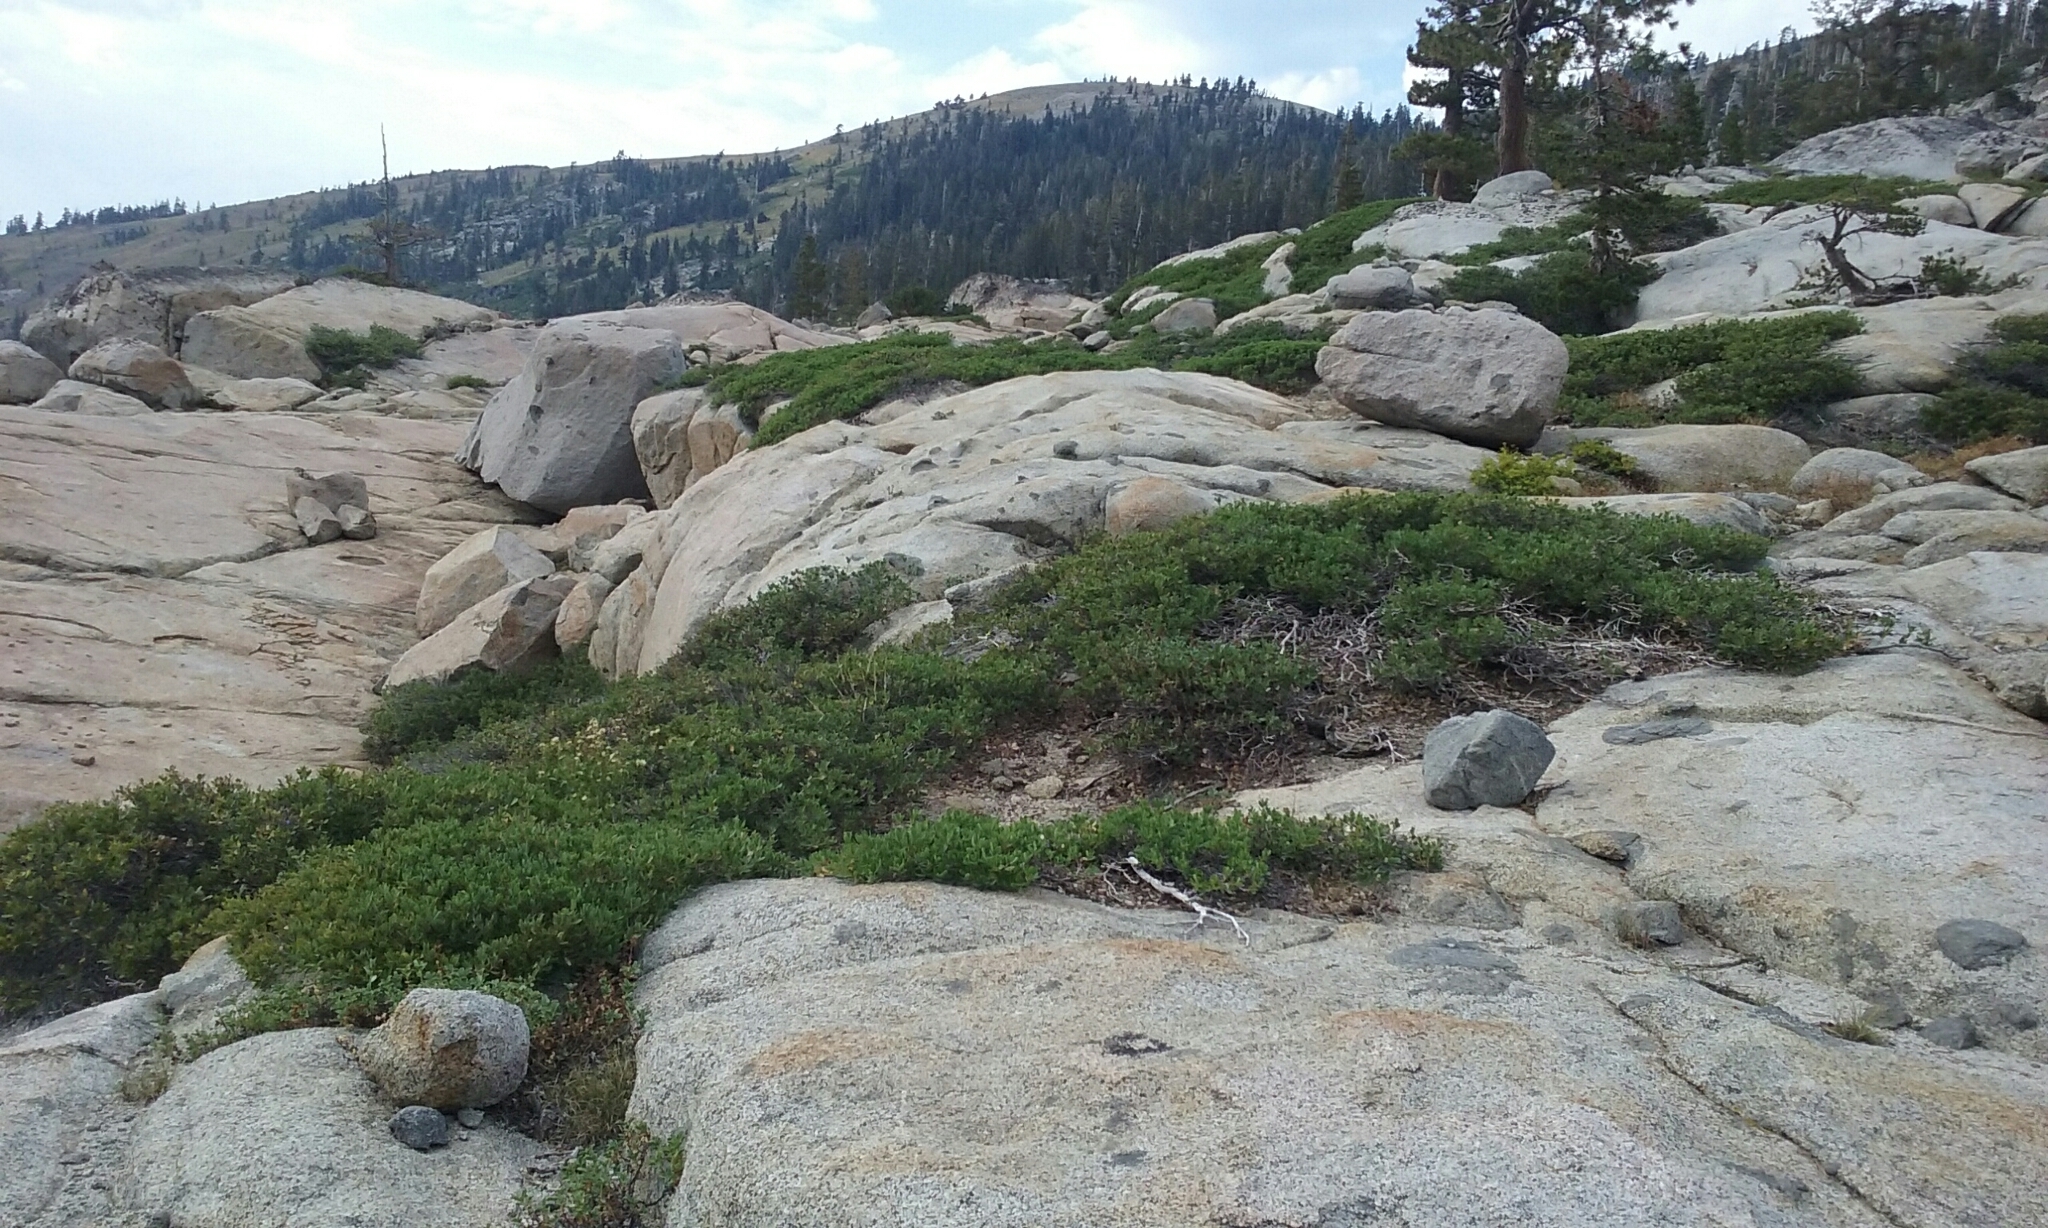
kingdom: Plantae
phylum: Tracheophyta
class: Magnoliopsida
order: Fagales
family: Fagaceae
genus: Quercus
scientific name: Quercus vacciniifolia
